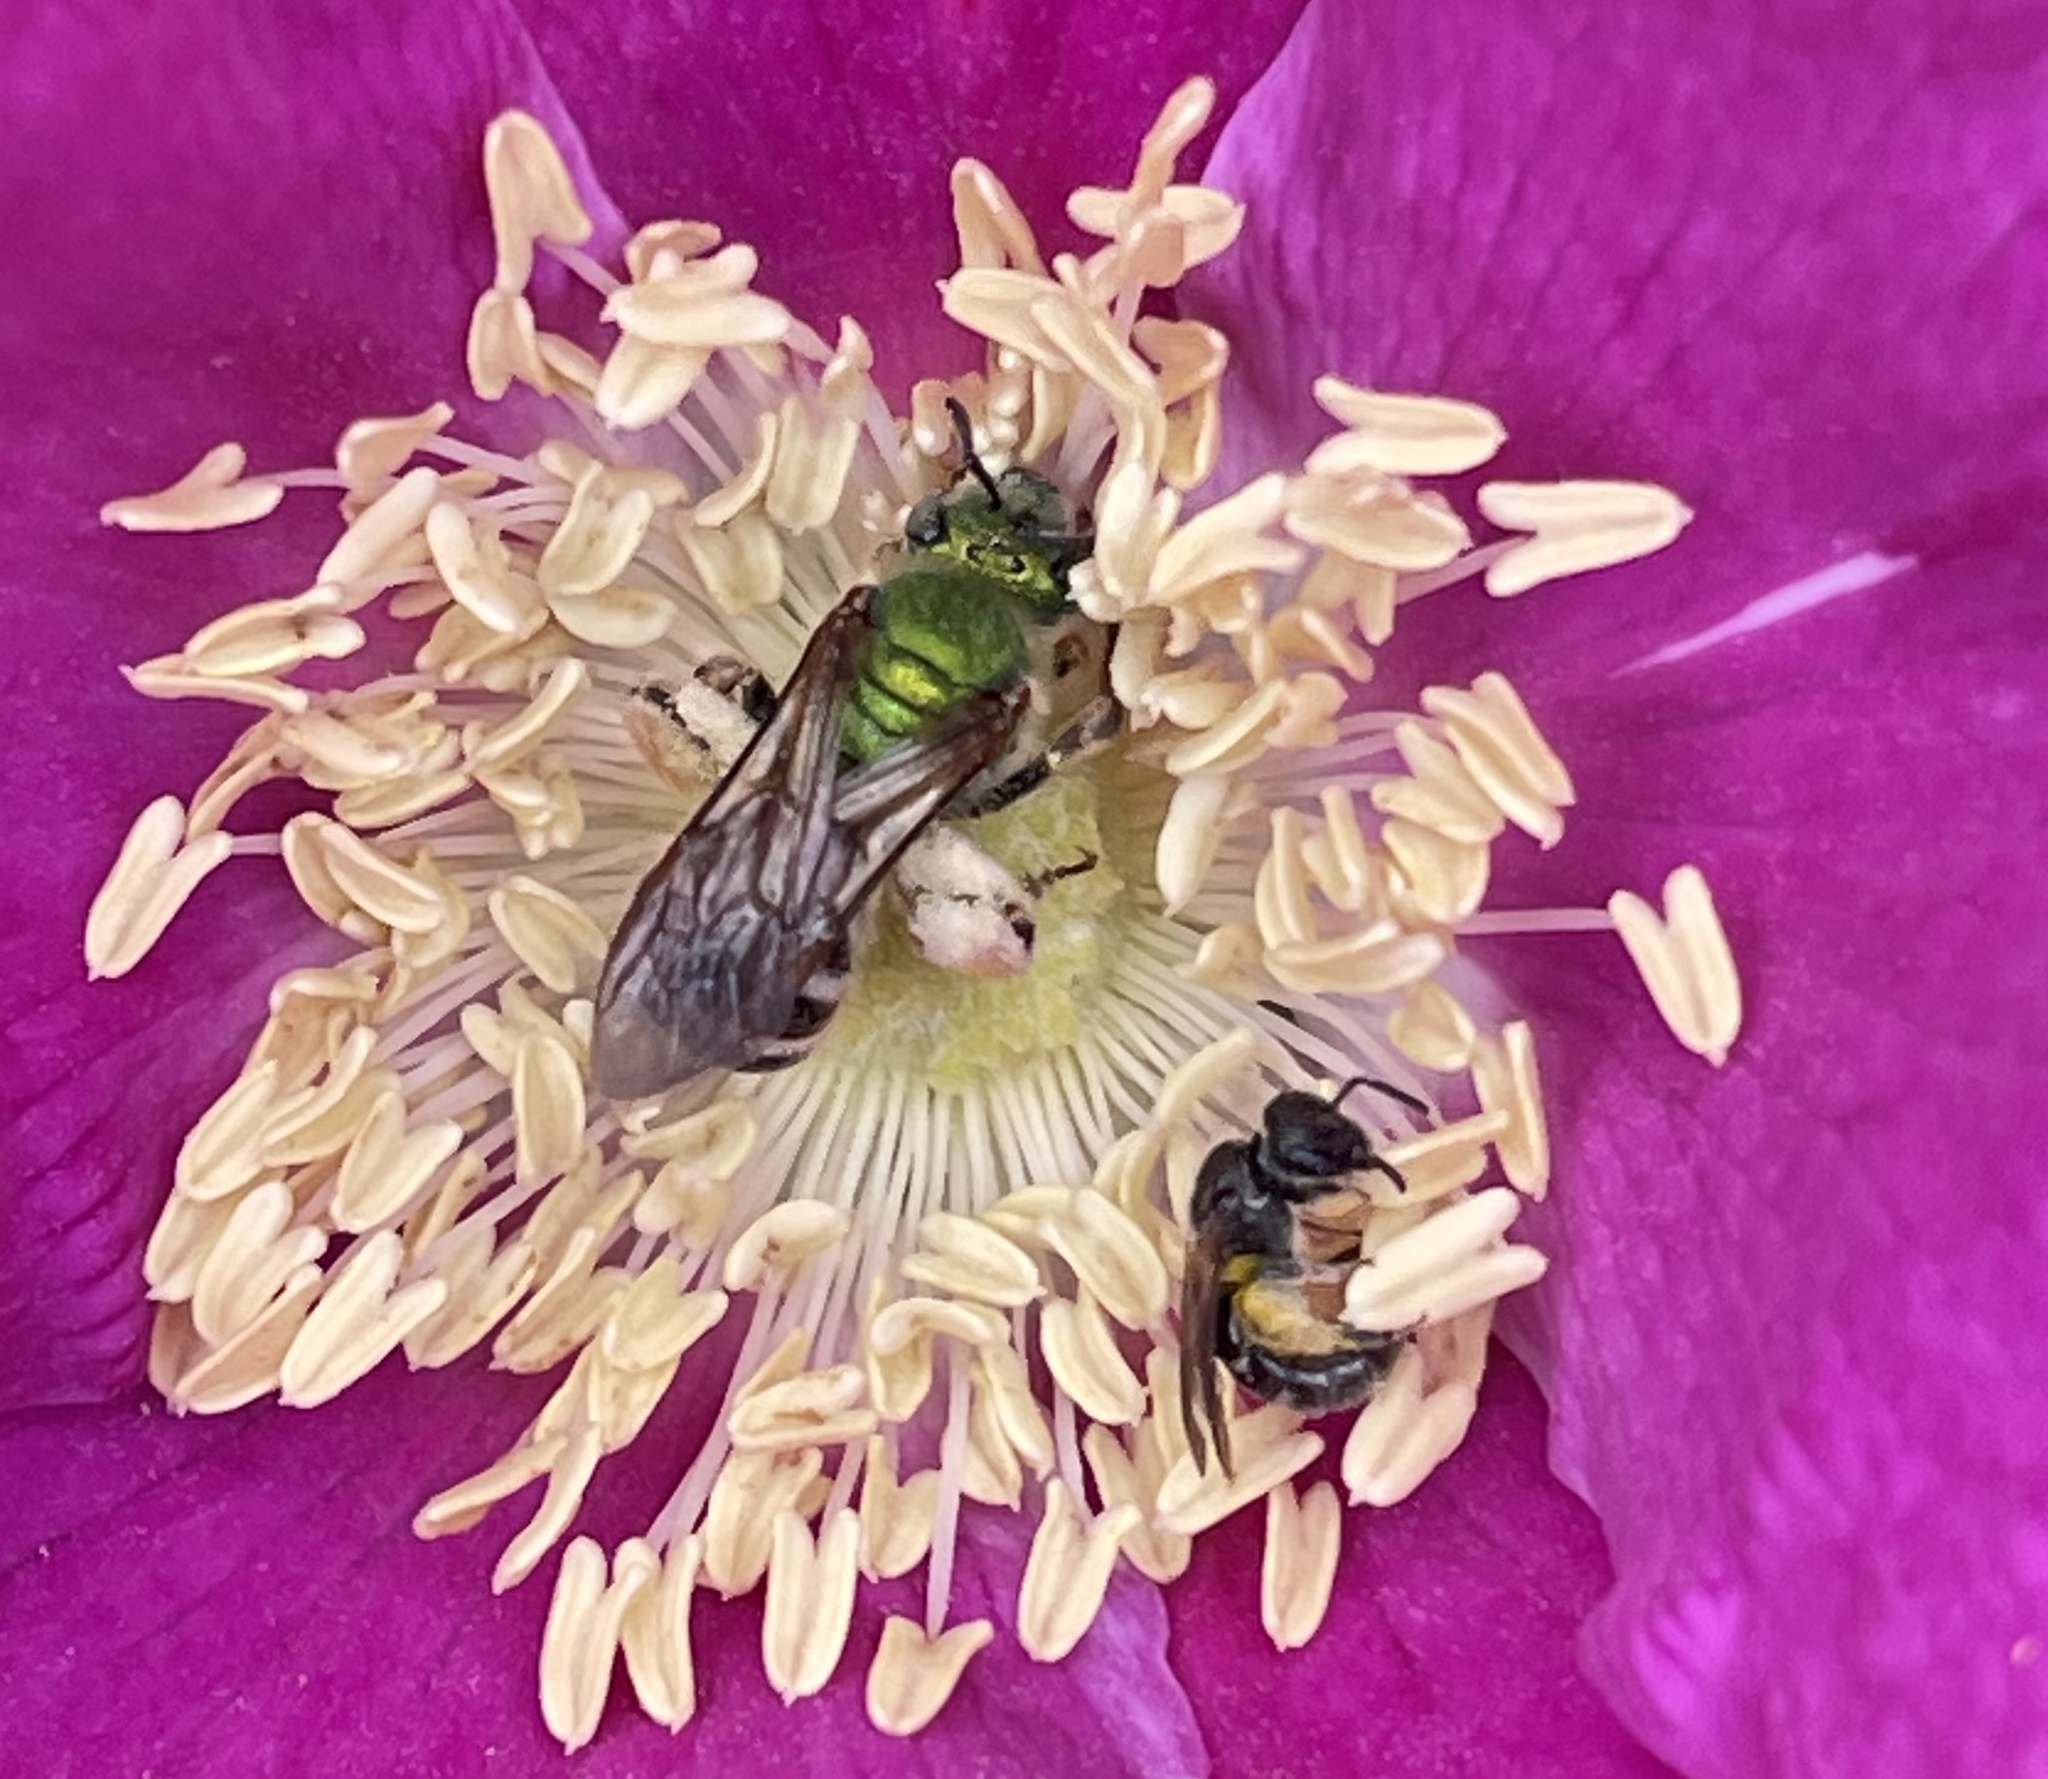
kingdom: Animalia
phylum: Arthropoda
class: Insecta
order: Hymenoptera
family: Halictidae
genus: Agapostemon
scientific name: Agapostemon virescens
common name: Bicolored striped sweat bee
